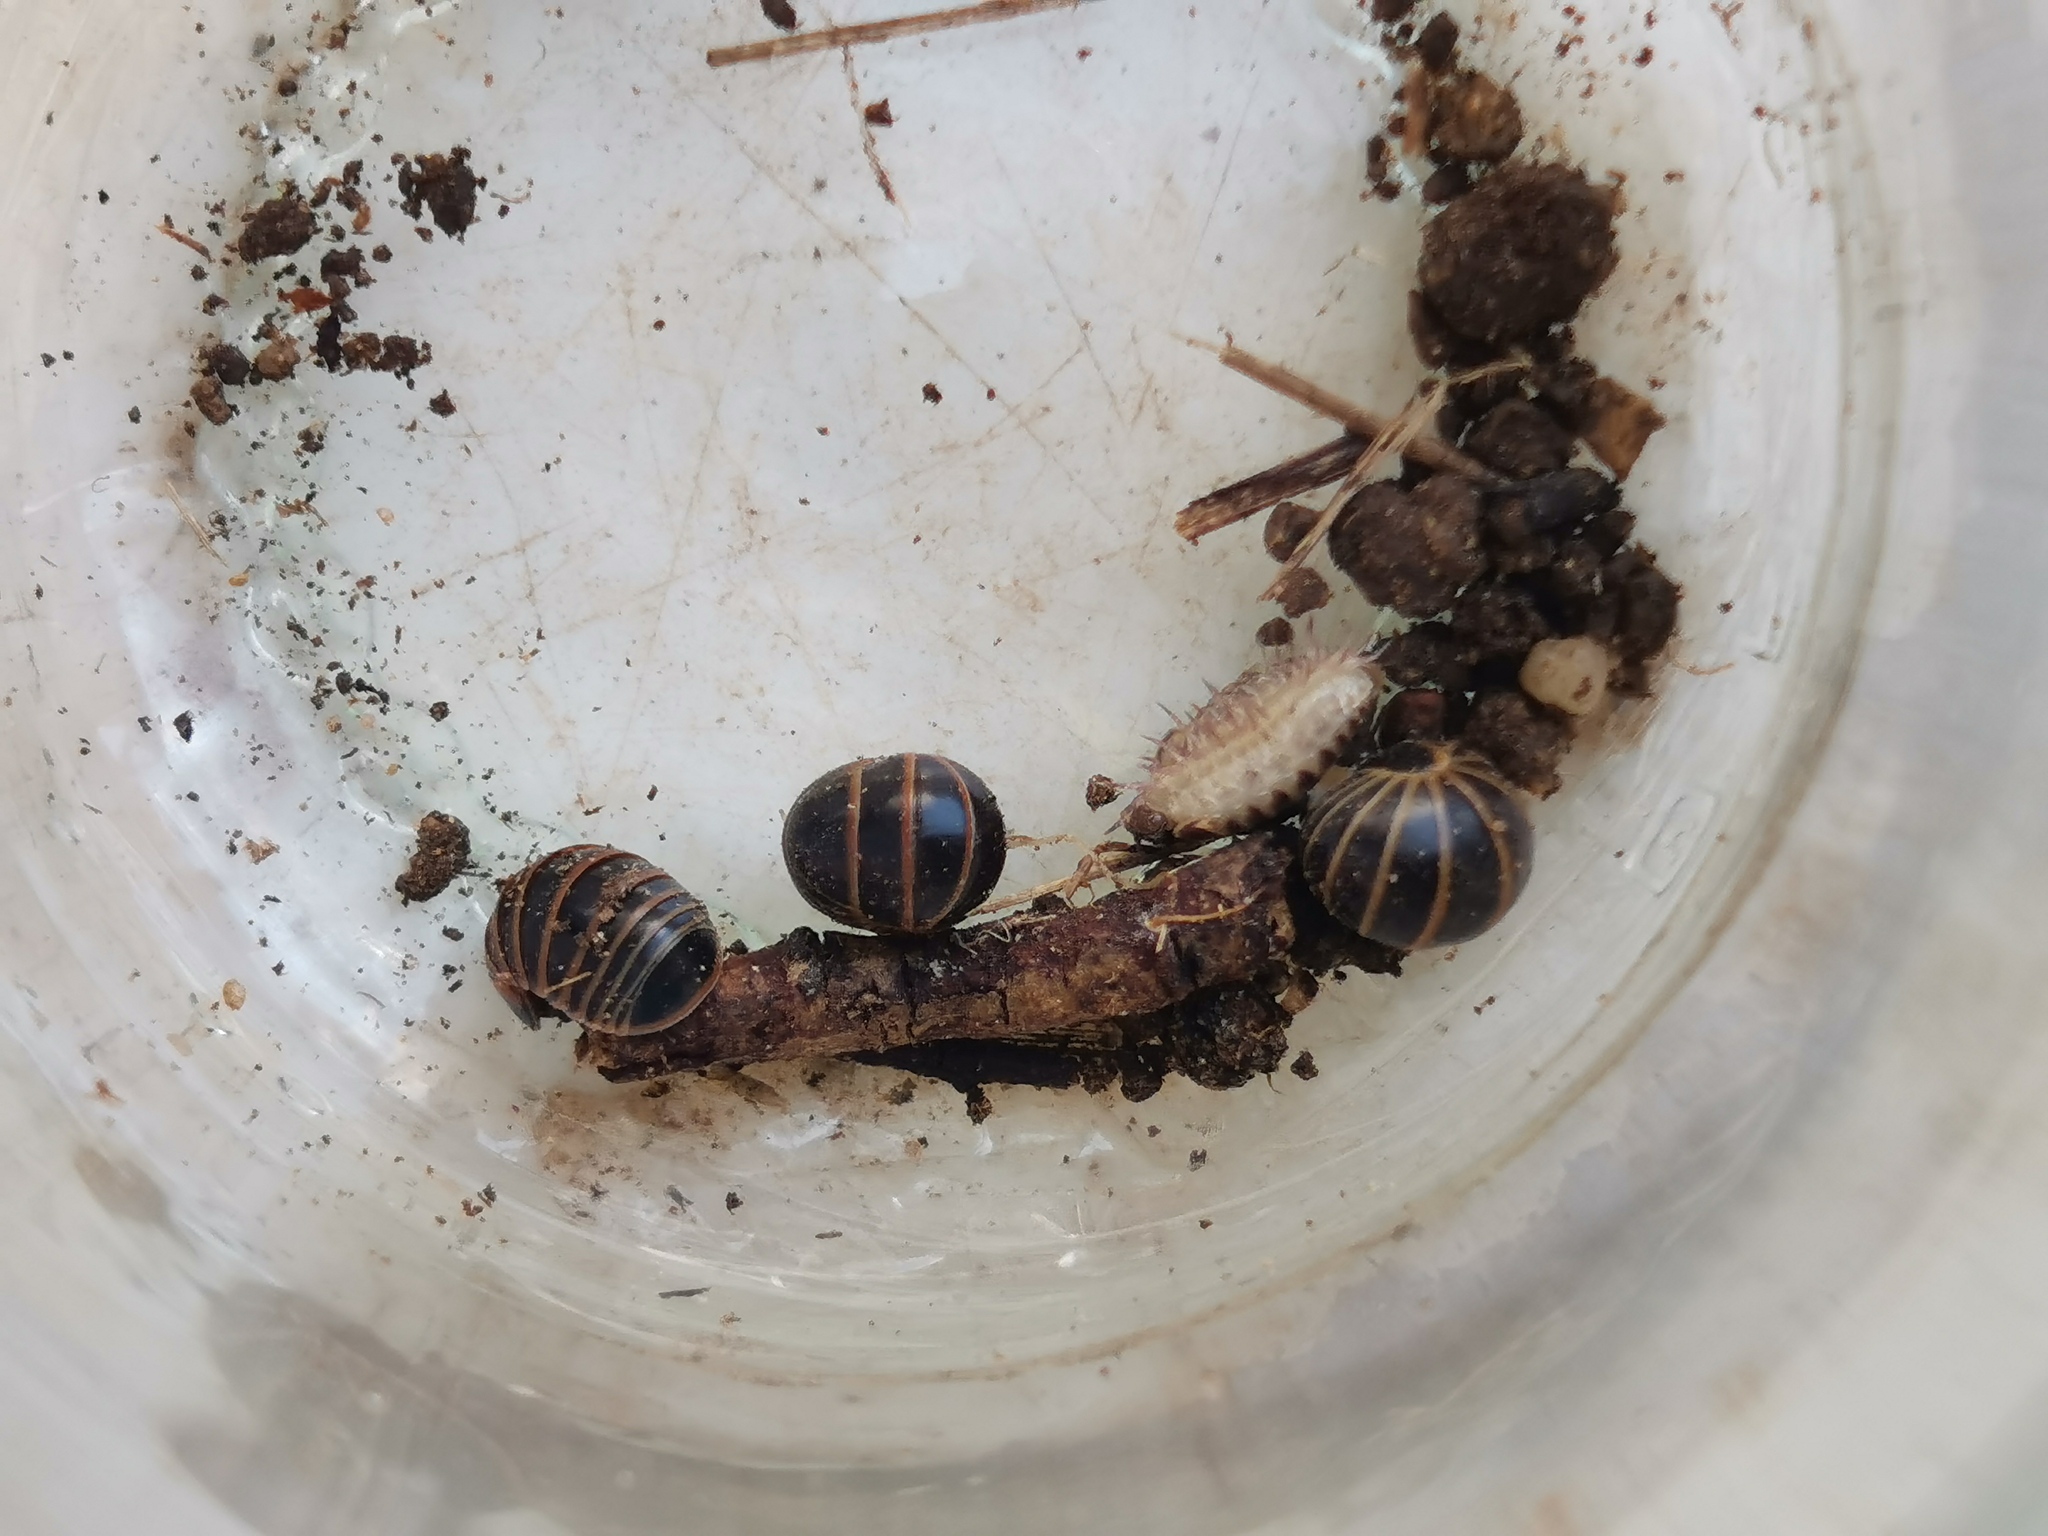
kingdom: Animalia
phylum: Arthropoda
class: Diplopoda
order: Glomerida
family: Glomeridae
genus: Glomeris
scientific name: Glomeris marginata
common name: Bordered pill millipede
